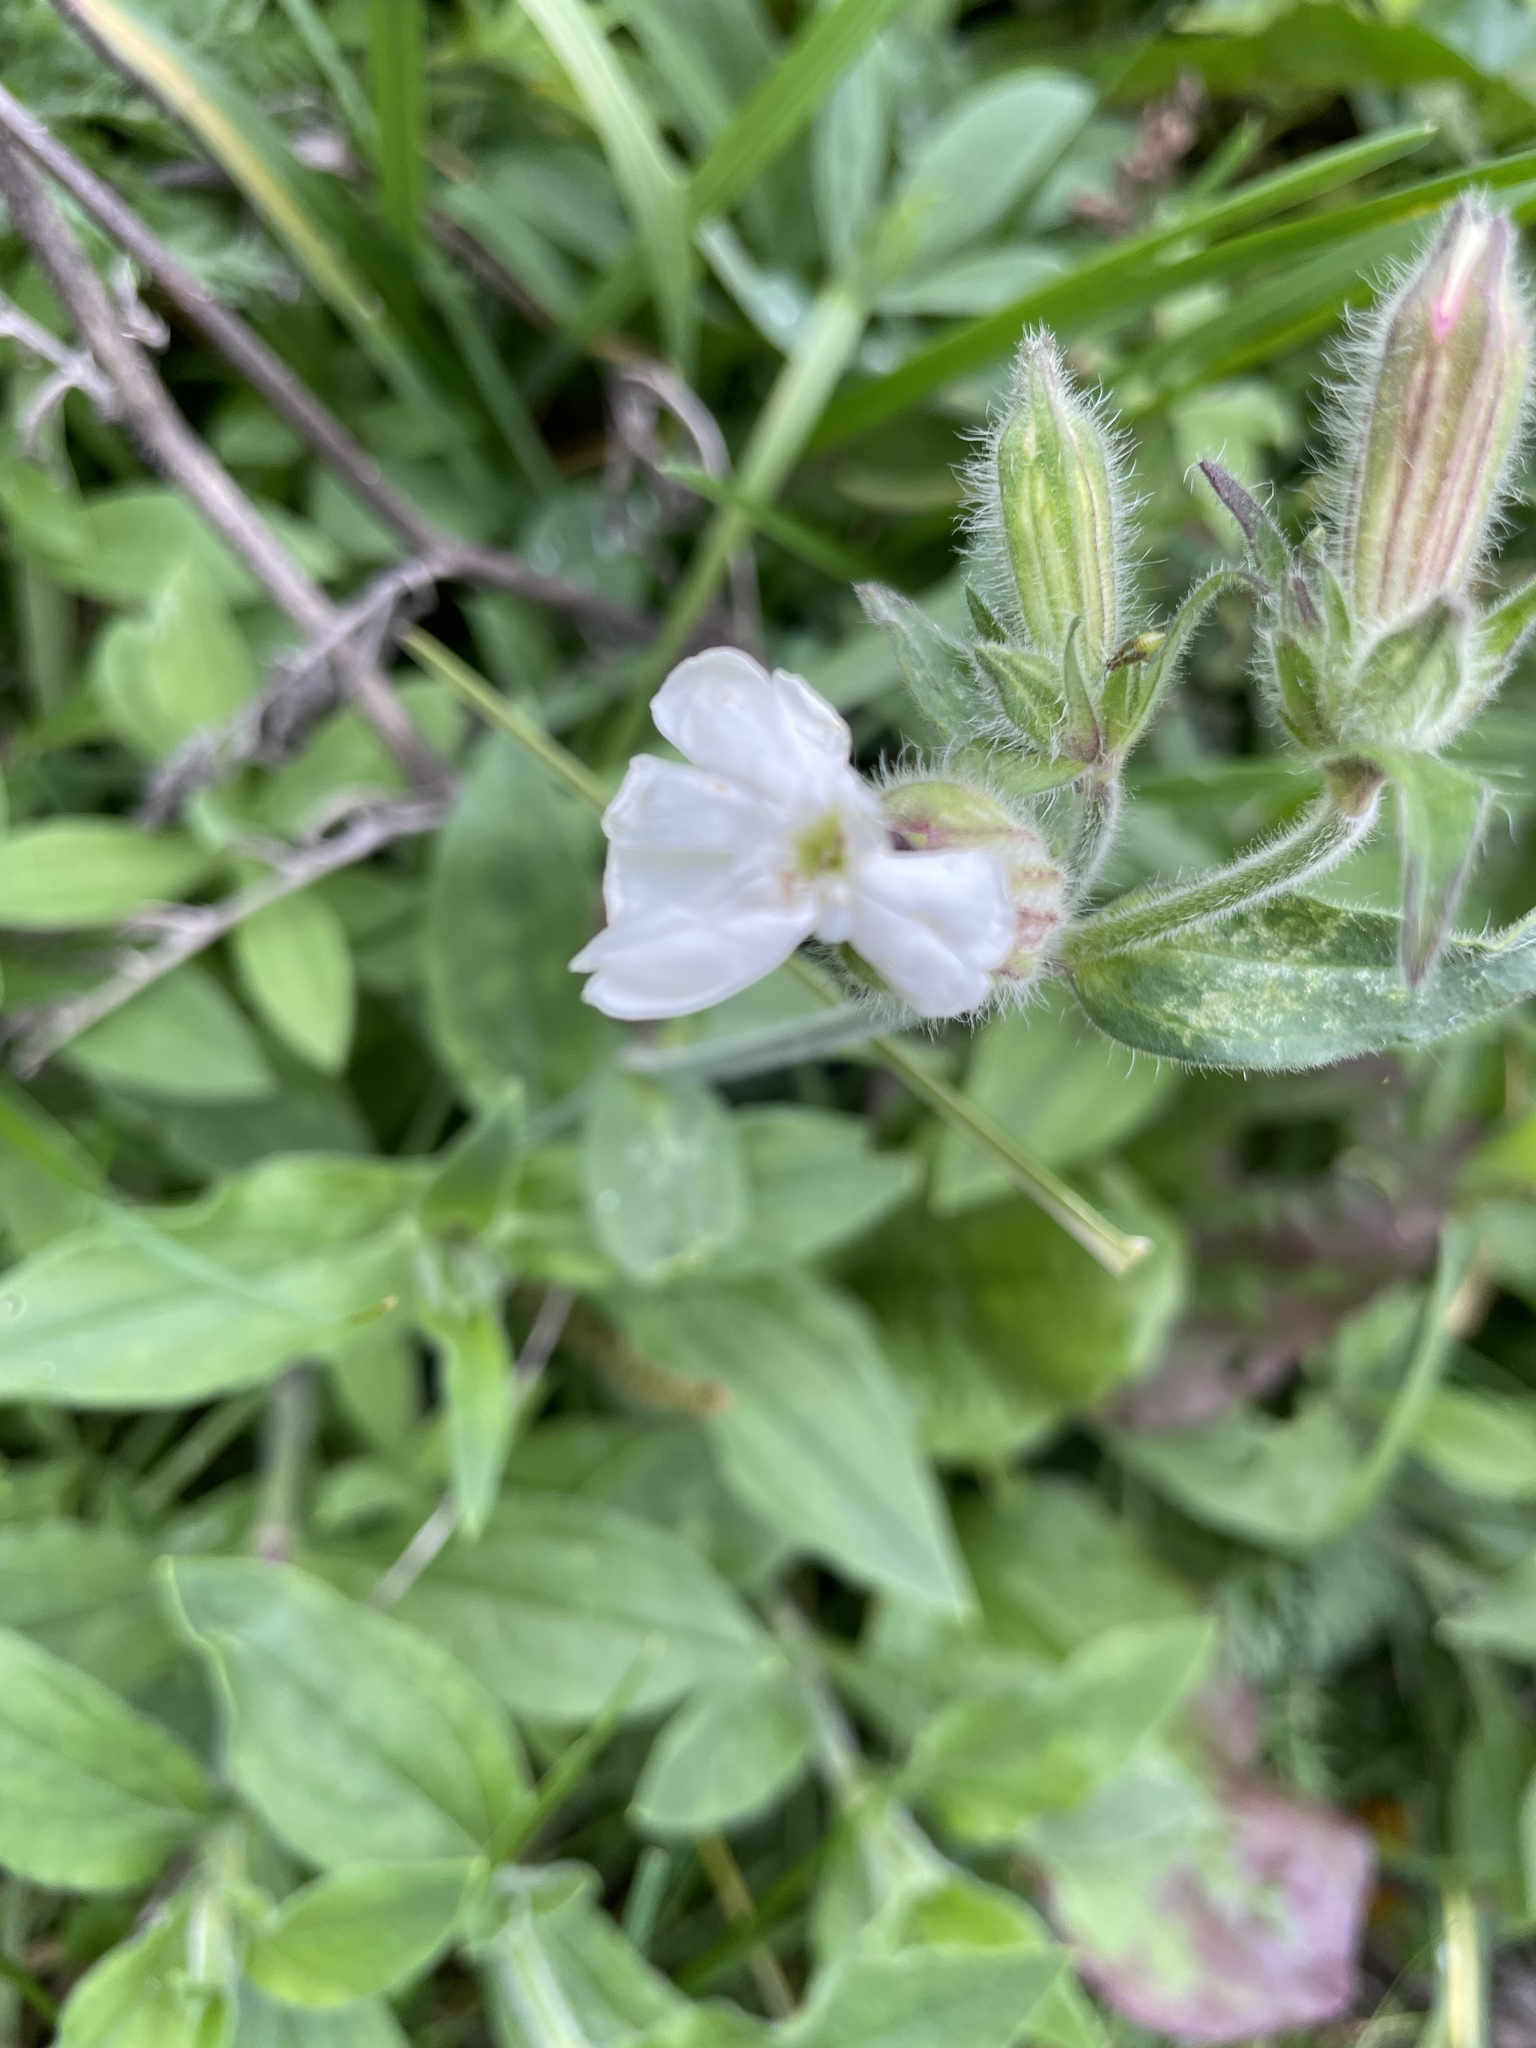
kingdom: Plantae
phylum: Tracheophyta
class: Magnoliopsida
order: Caryophyllales
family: Caryophyllaceae
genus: Silene
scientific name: Silene latifolia
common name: White campion
